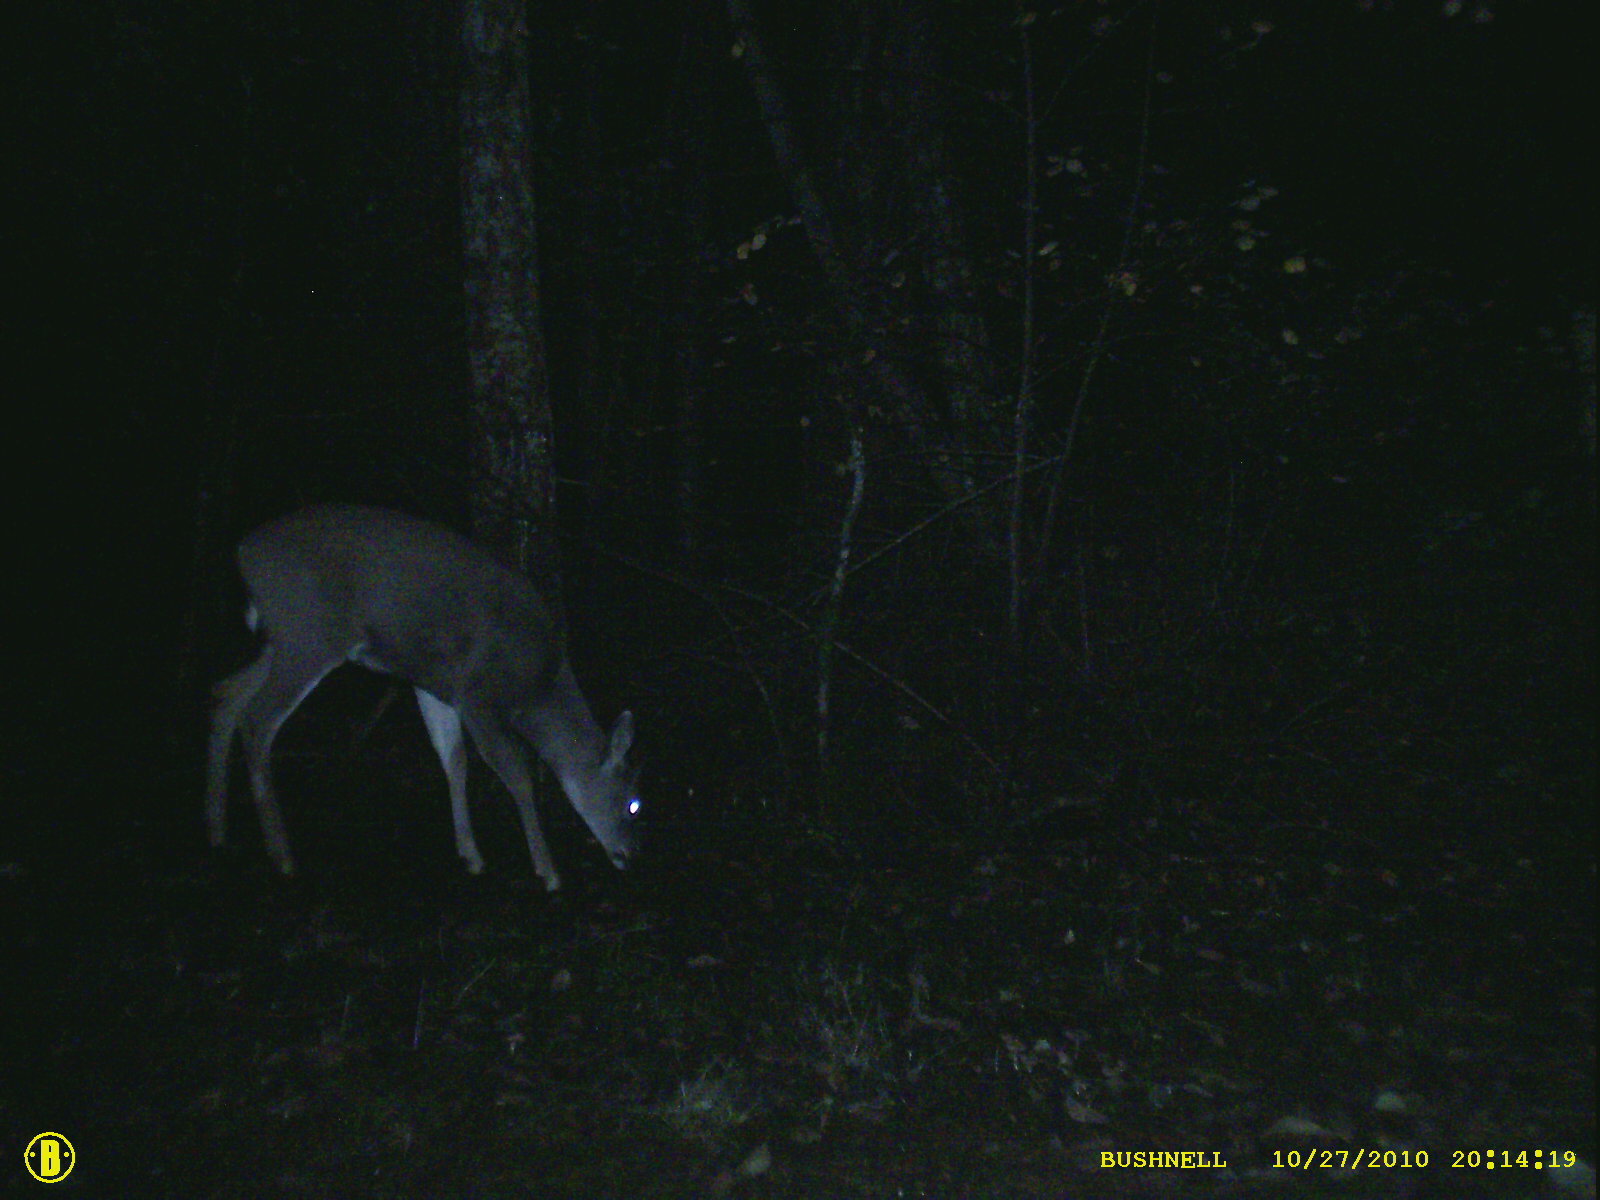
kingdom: Animalia
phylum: Chordata
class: Mammalia
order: Artiodactyla
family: Cervidae
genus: Odocoileus
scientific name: Odocoileus hemionus
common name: Mule deer
